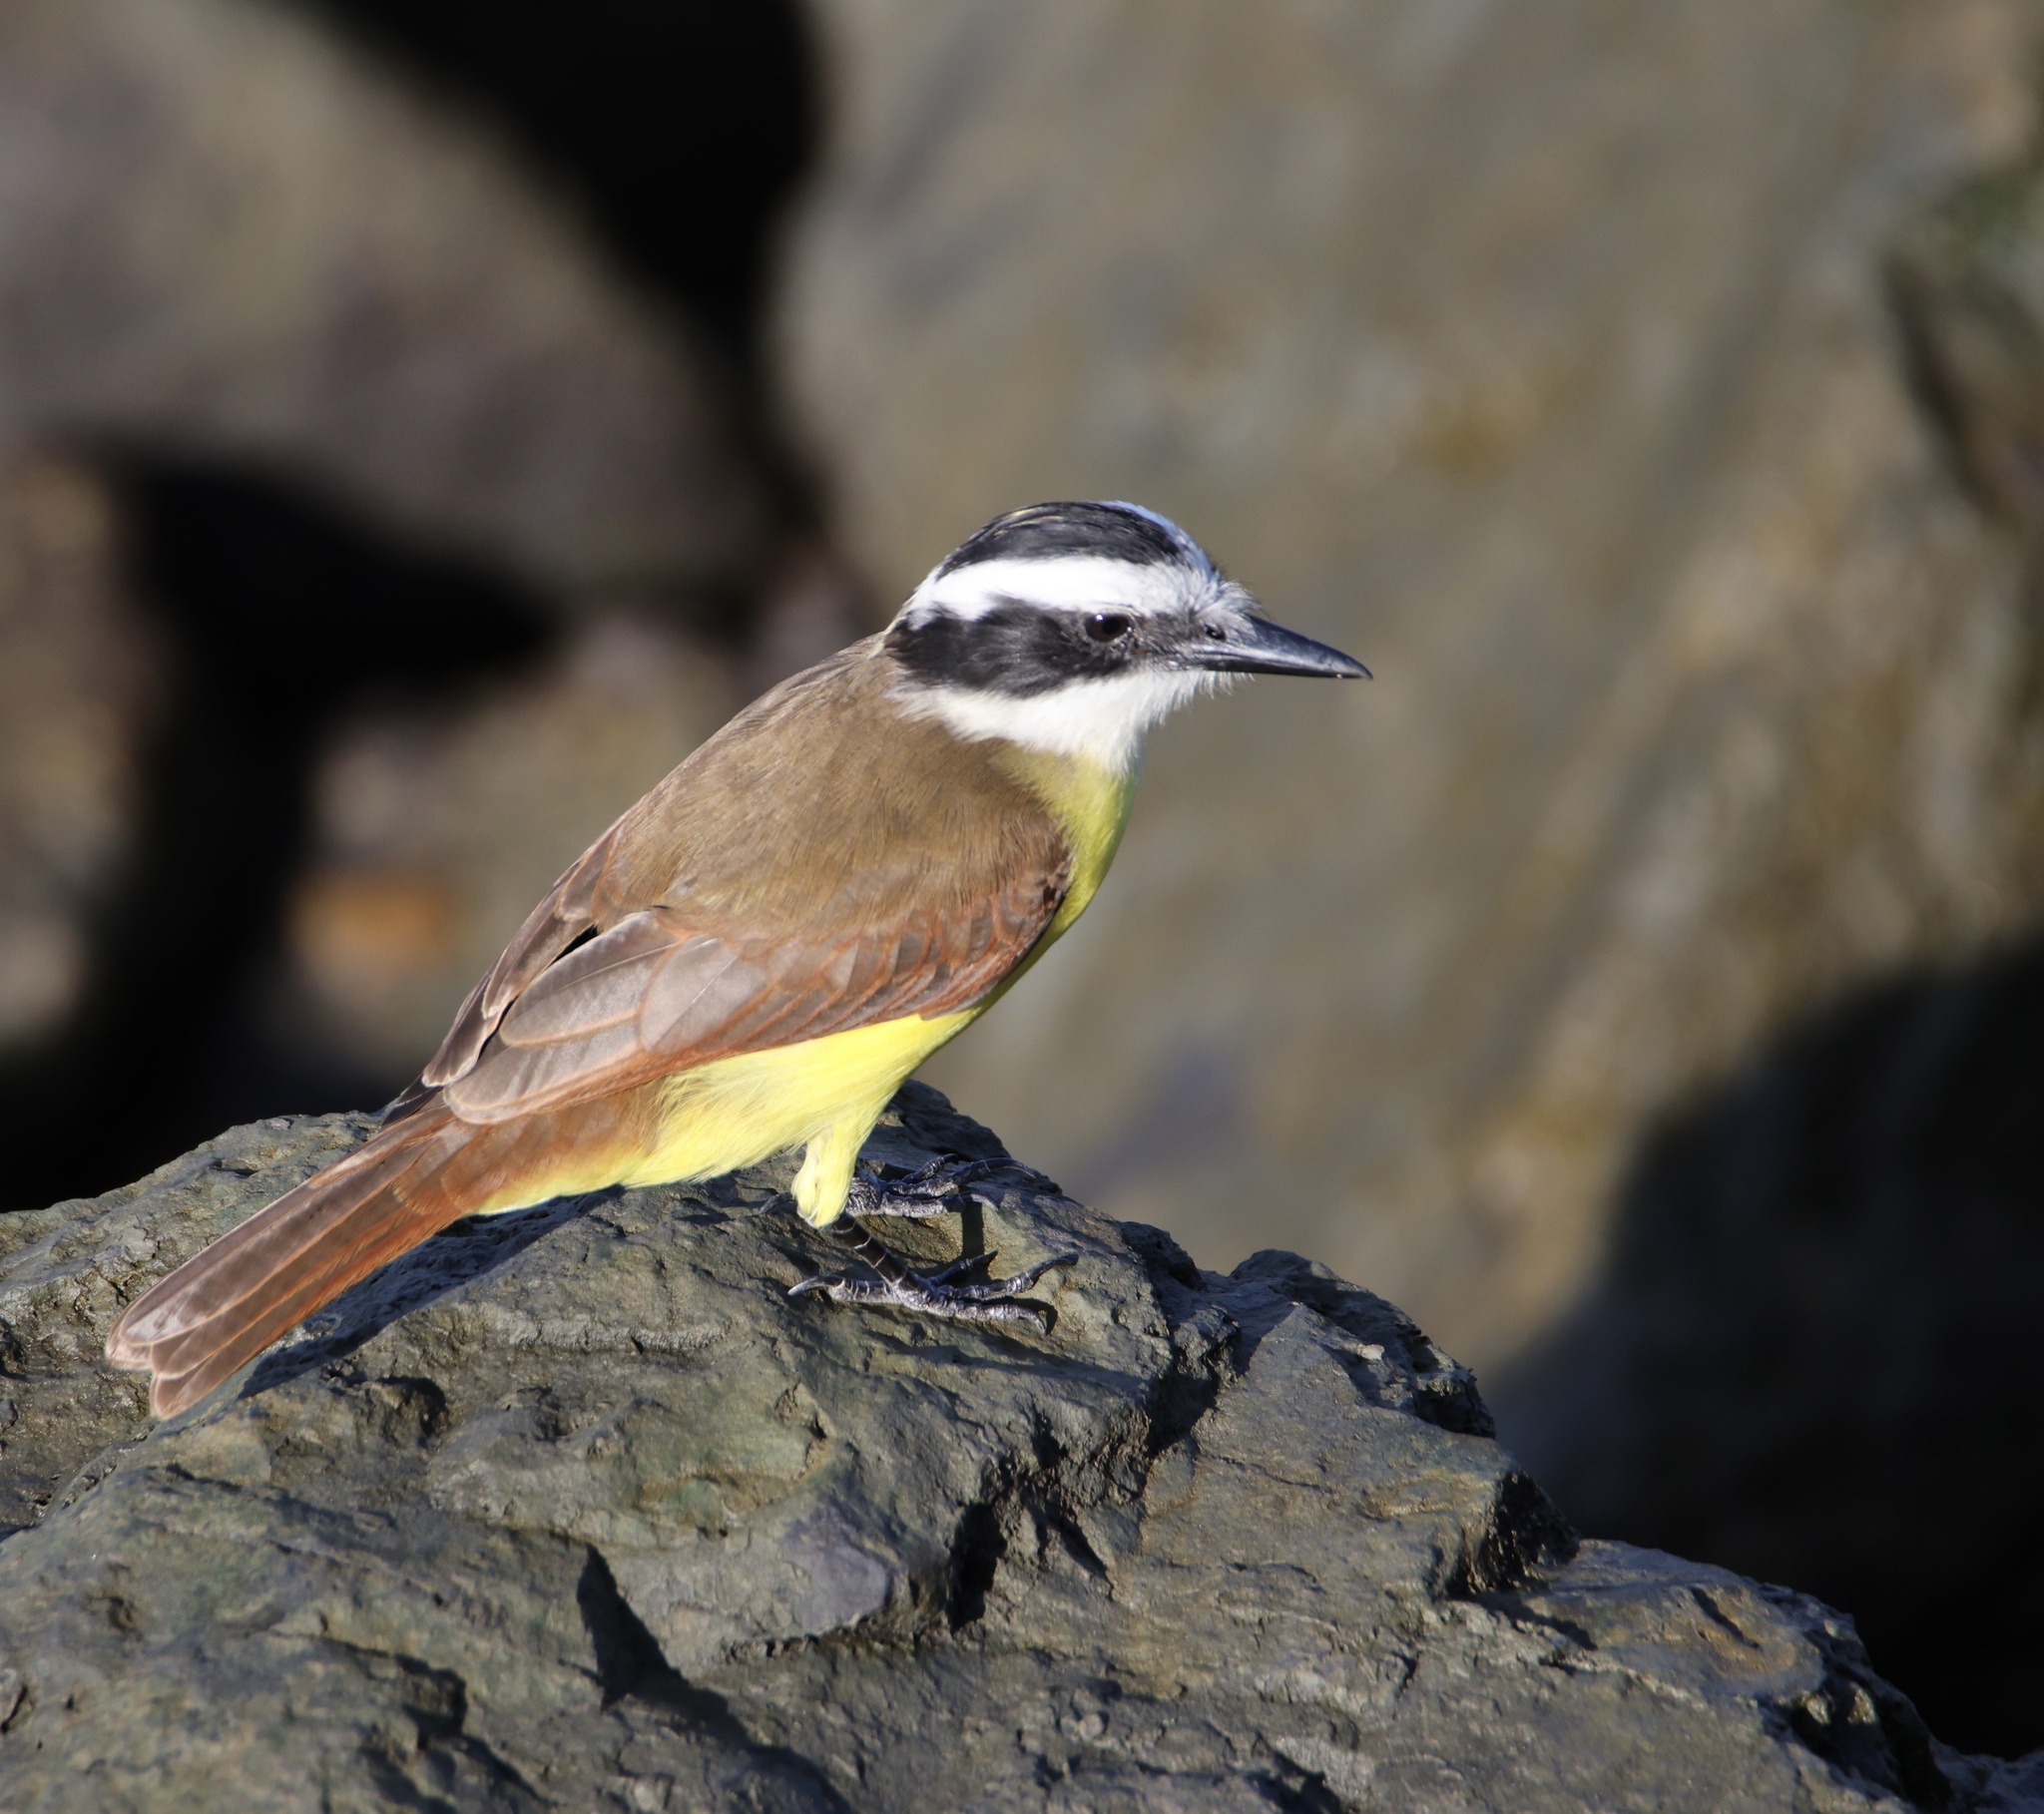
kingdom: Animalia
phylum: Chordata
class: Aves
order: Passeriformes
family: Tyrannidae
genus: Pitangus
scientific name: Pitangus sulphuratus
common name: Great kiskadee
